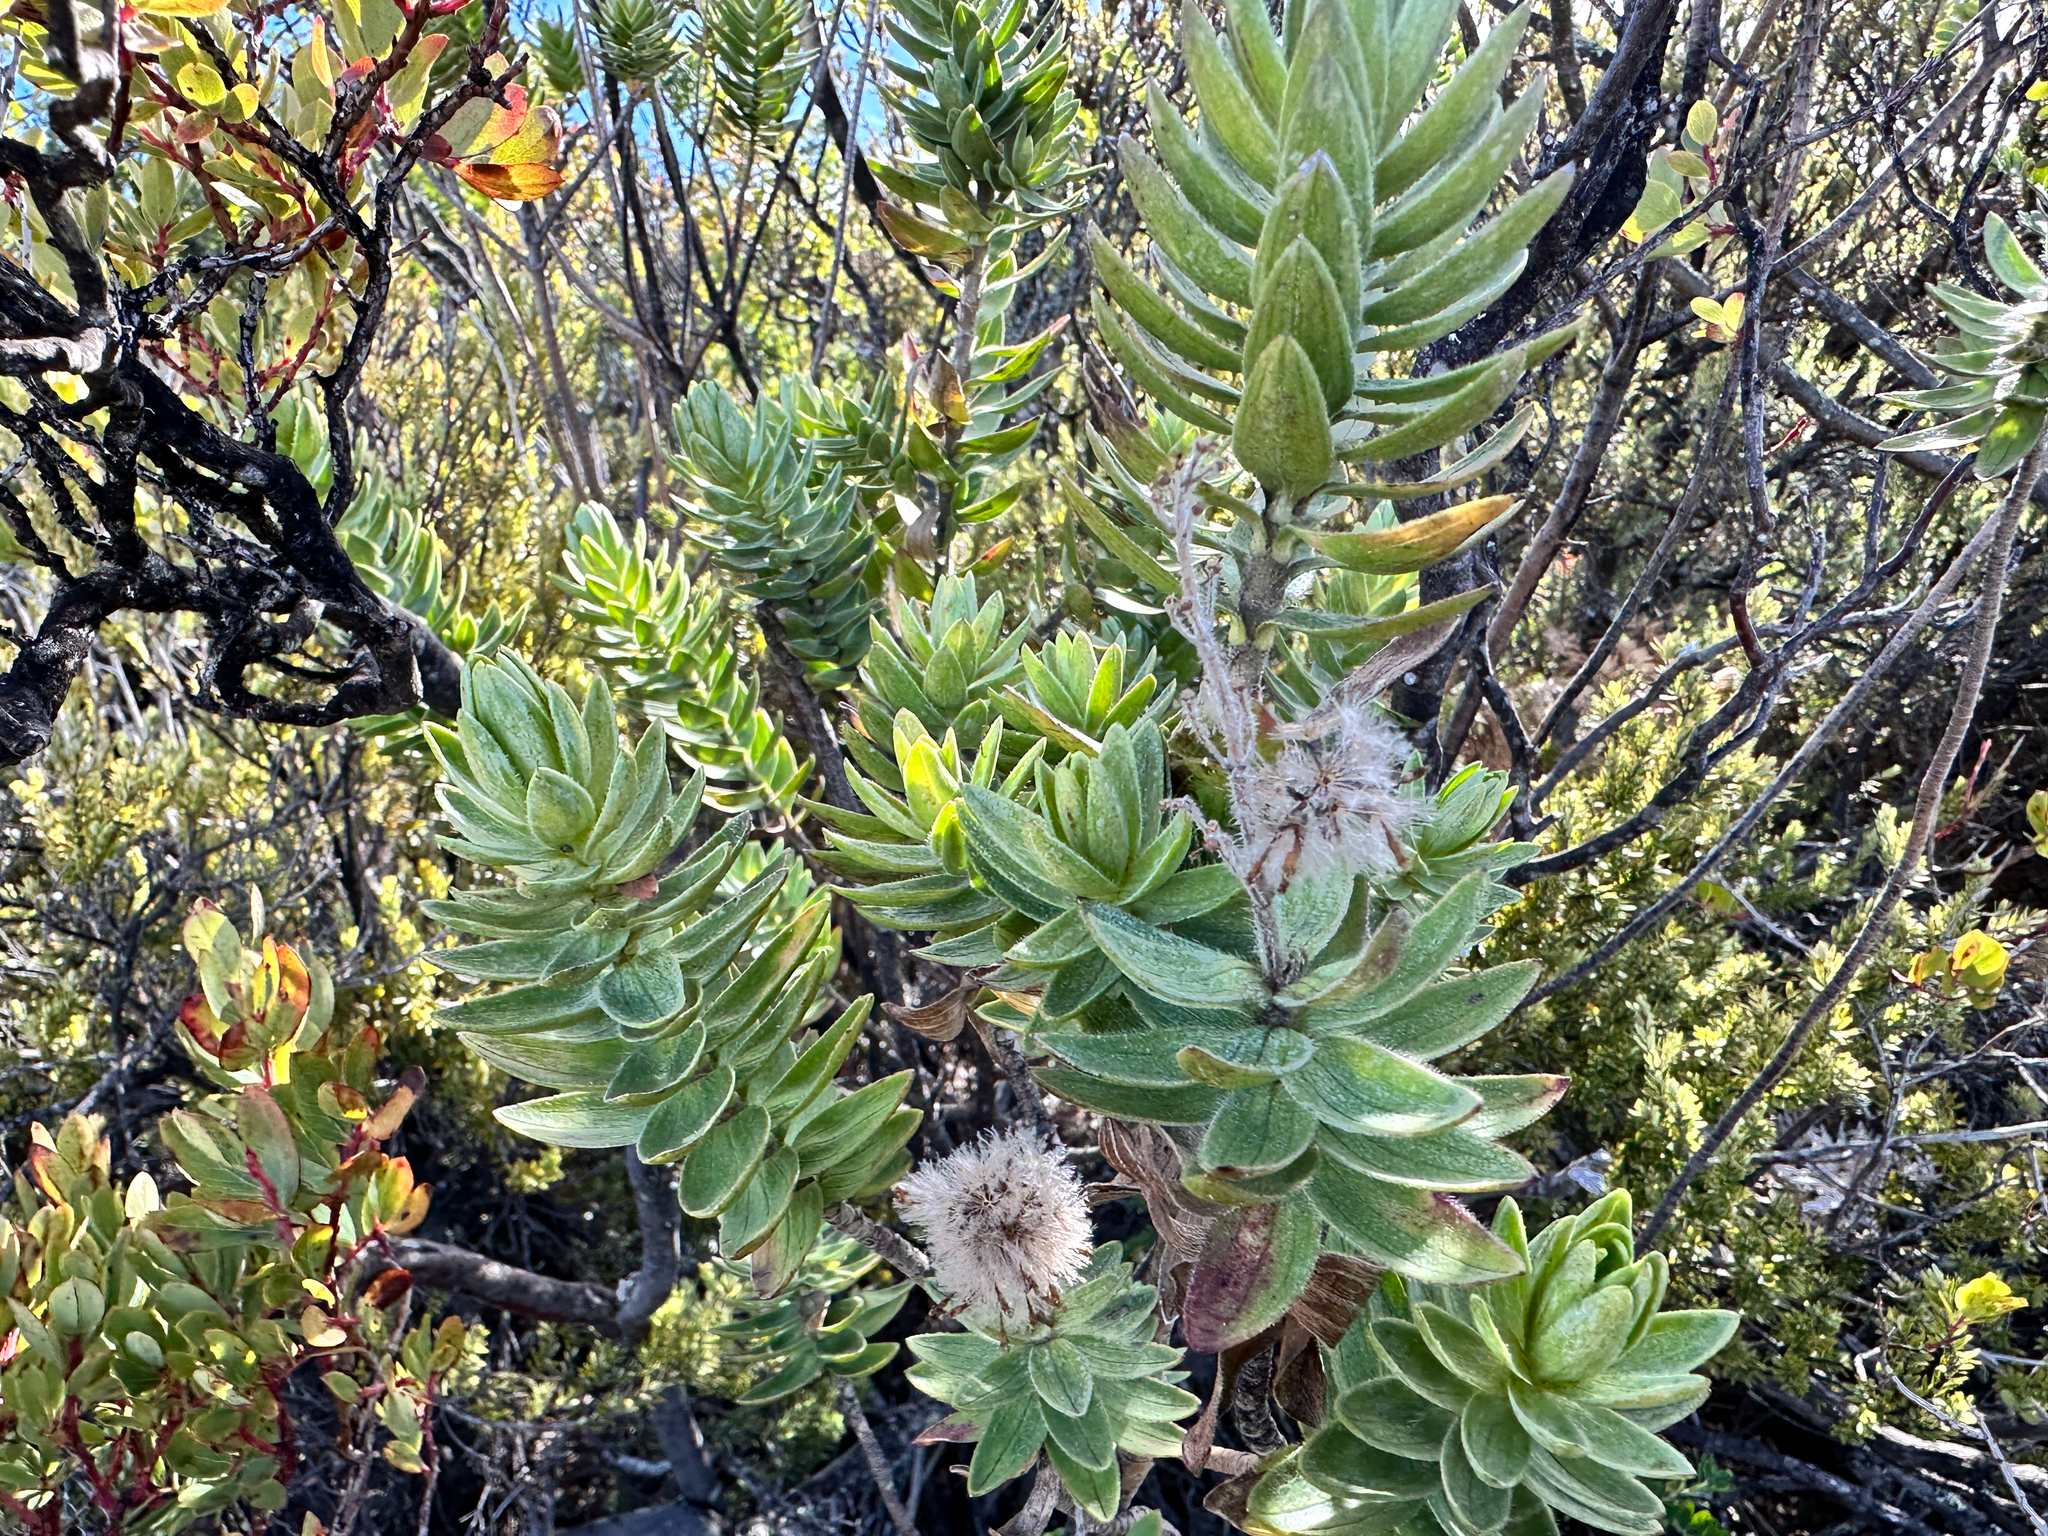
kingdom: Plantae
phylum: Tracheophyta
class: Magnoliopsida
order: Asterales
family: Asteraceae
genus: Dubautia
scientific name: Dubautia menziesii
